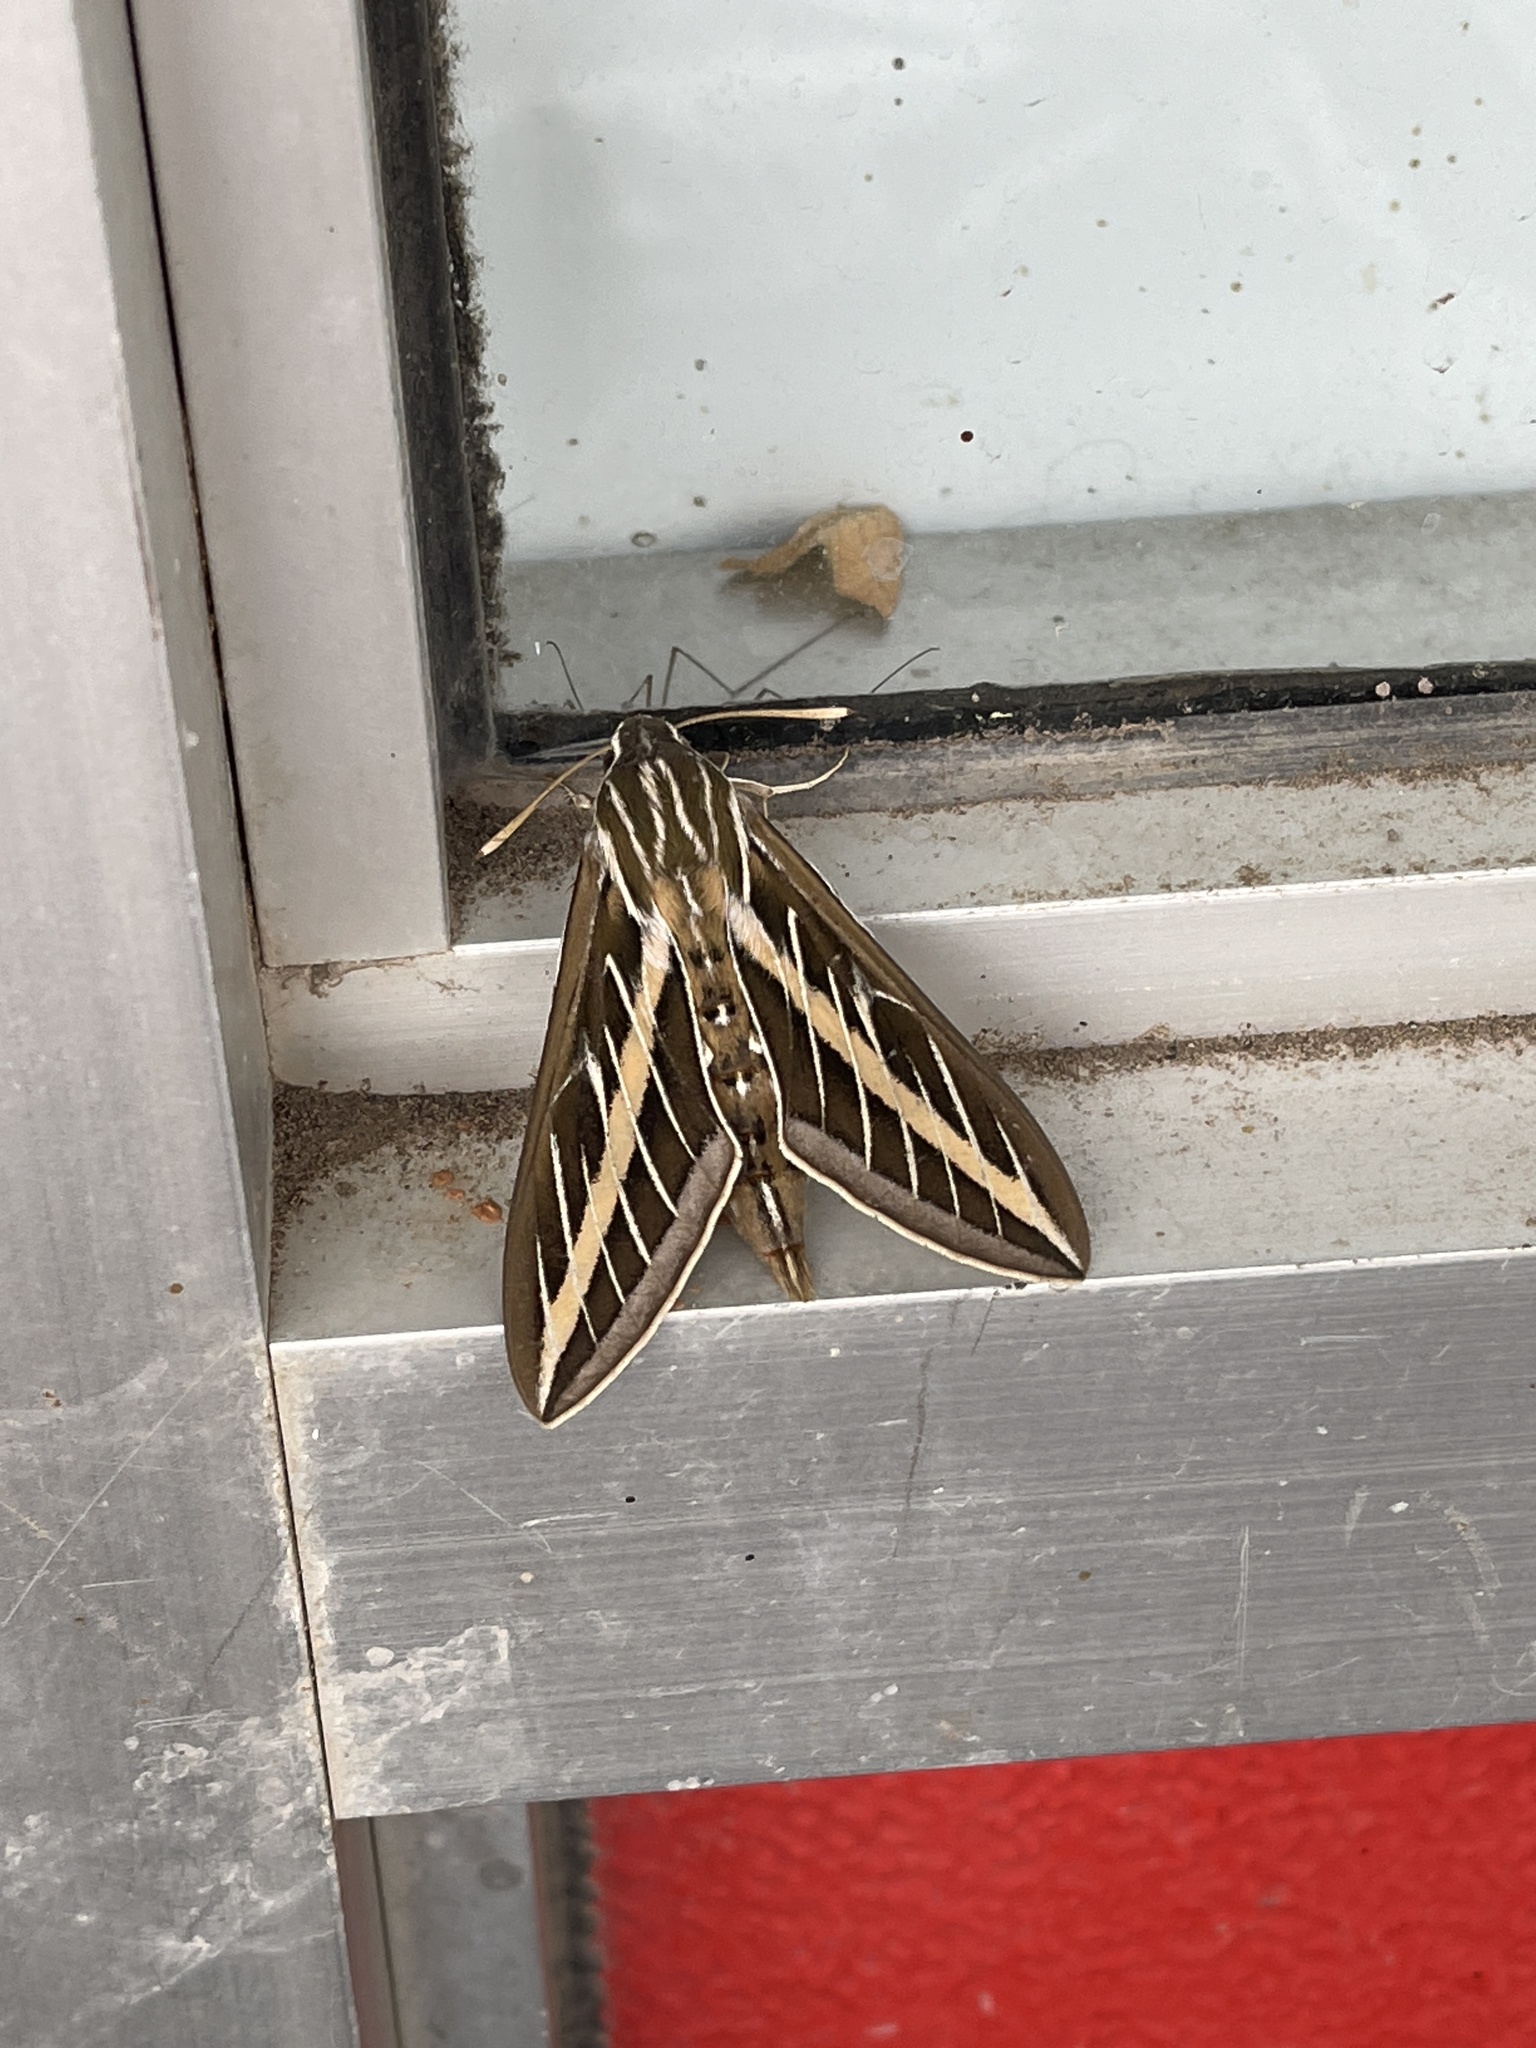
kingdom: Animalia
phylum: Arthropoda
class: Insecta
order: Lepidoptera
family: Sphingidae
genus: Hyles
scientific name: Hyles lineata
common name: White-lined sphinx
